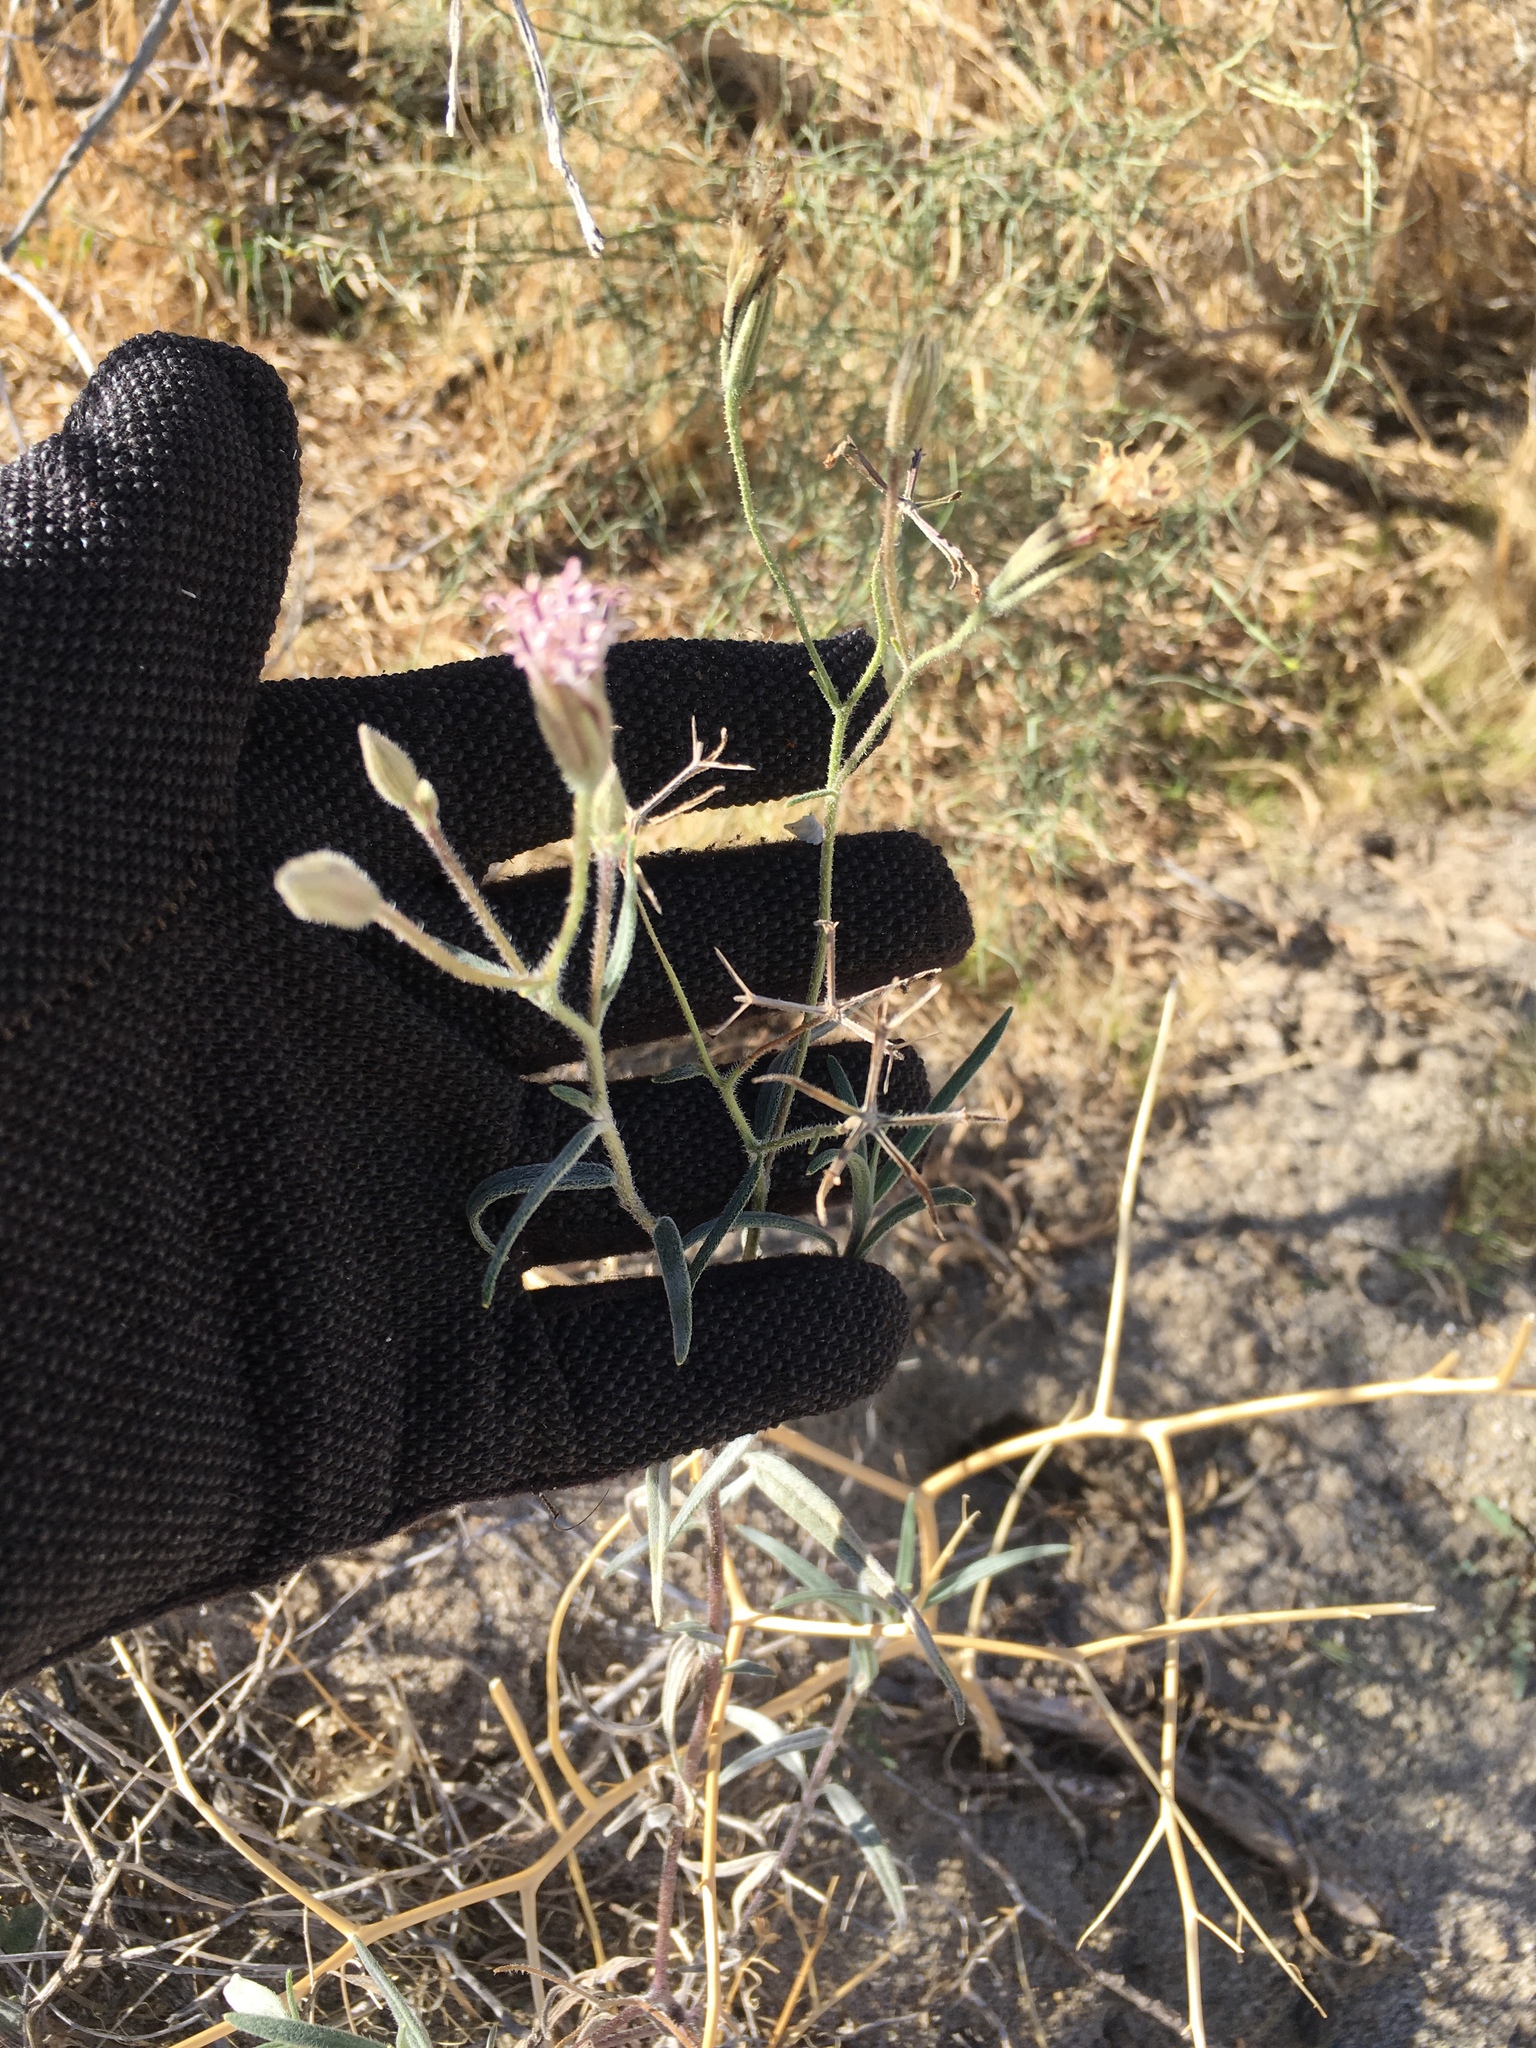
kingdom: Plantae
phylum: Tracheophyta
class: Magnoliopsida
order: Asterales
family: Asteraceae
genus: Palafoxia
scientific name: Palafoxia arida
